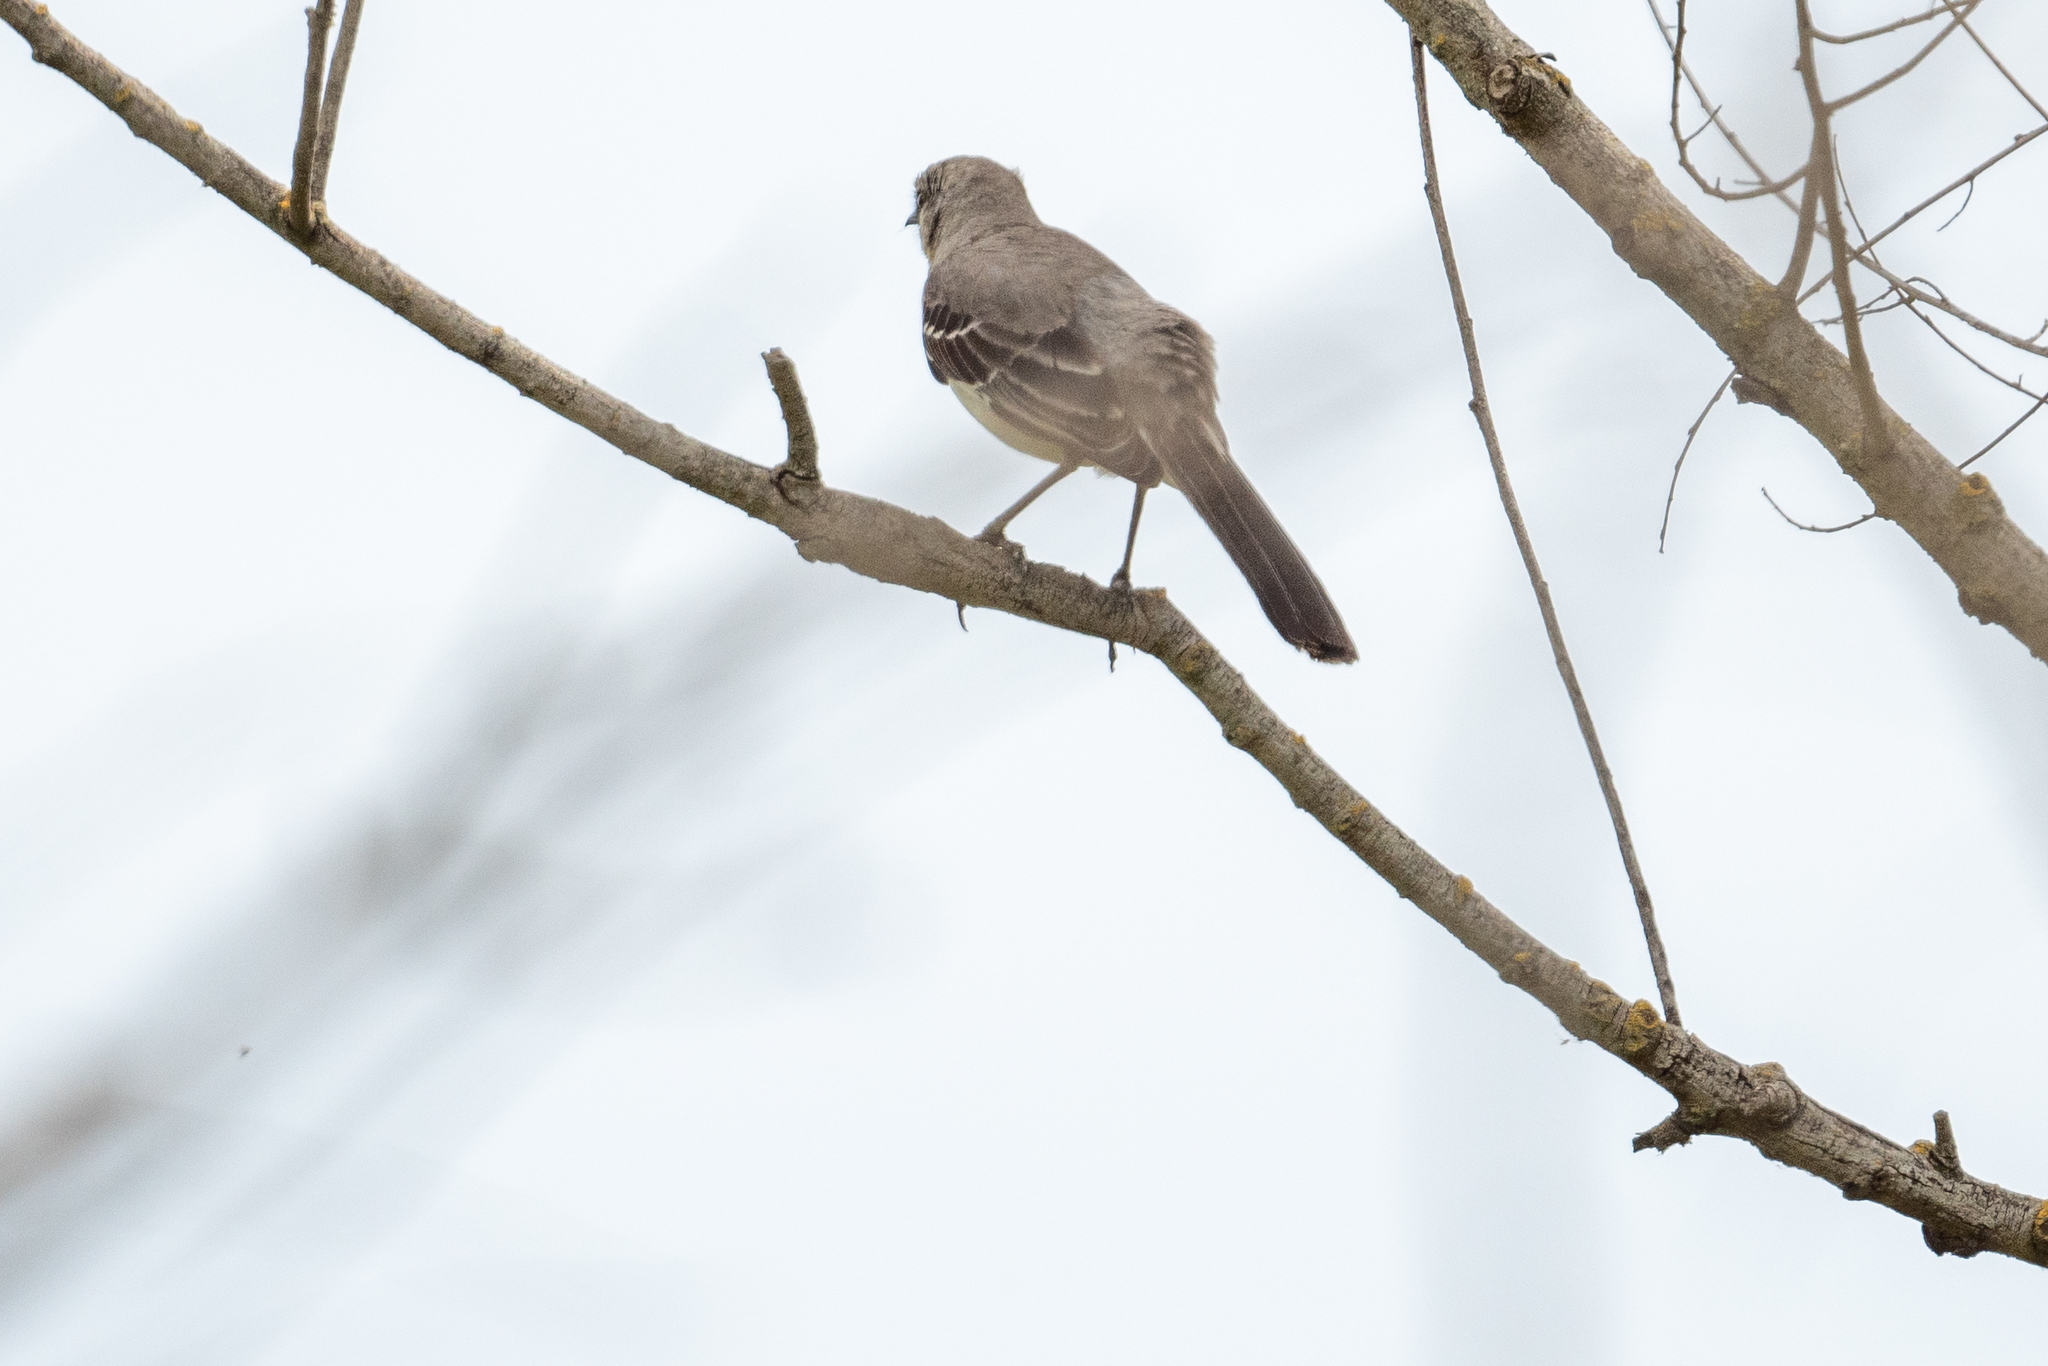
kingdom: Animalia
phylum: Chordata
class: Aves
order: Passeriformes
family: Mimidae
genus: Mimus
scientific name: Mimus polyglottos
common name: Northern mockingbird
